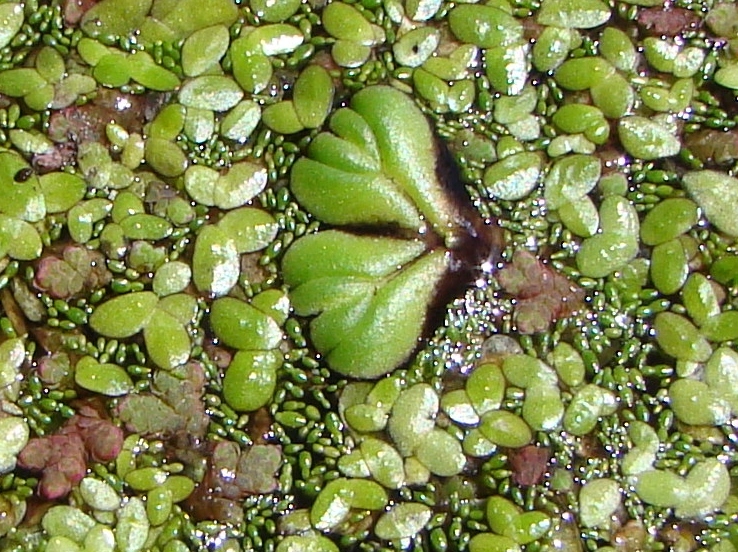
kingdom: Plantae
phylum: Tracheophyta
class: Liliopsida
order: Alismatales
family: Araceae
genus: Wolffia
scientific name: Wolffia australiana
